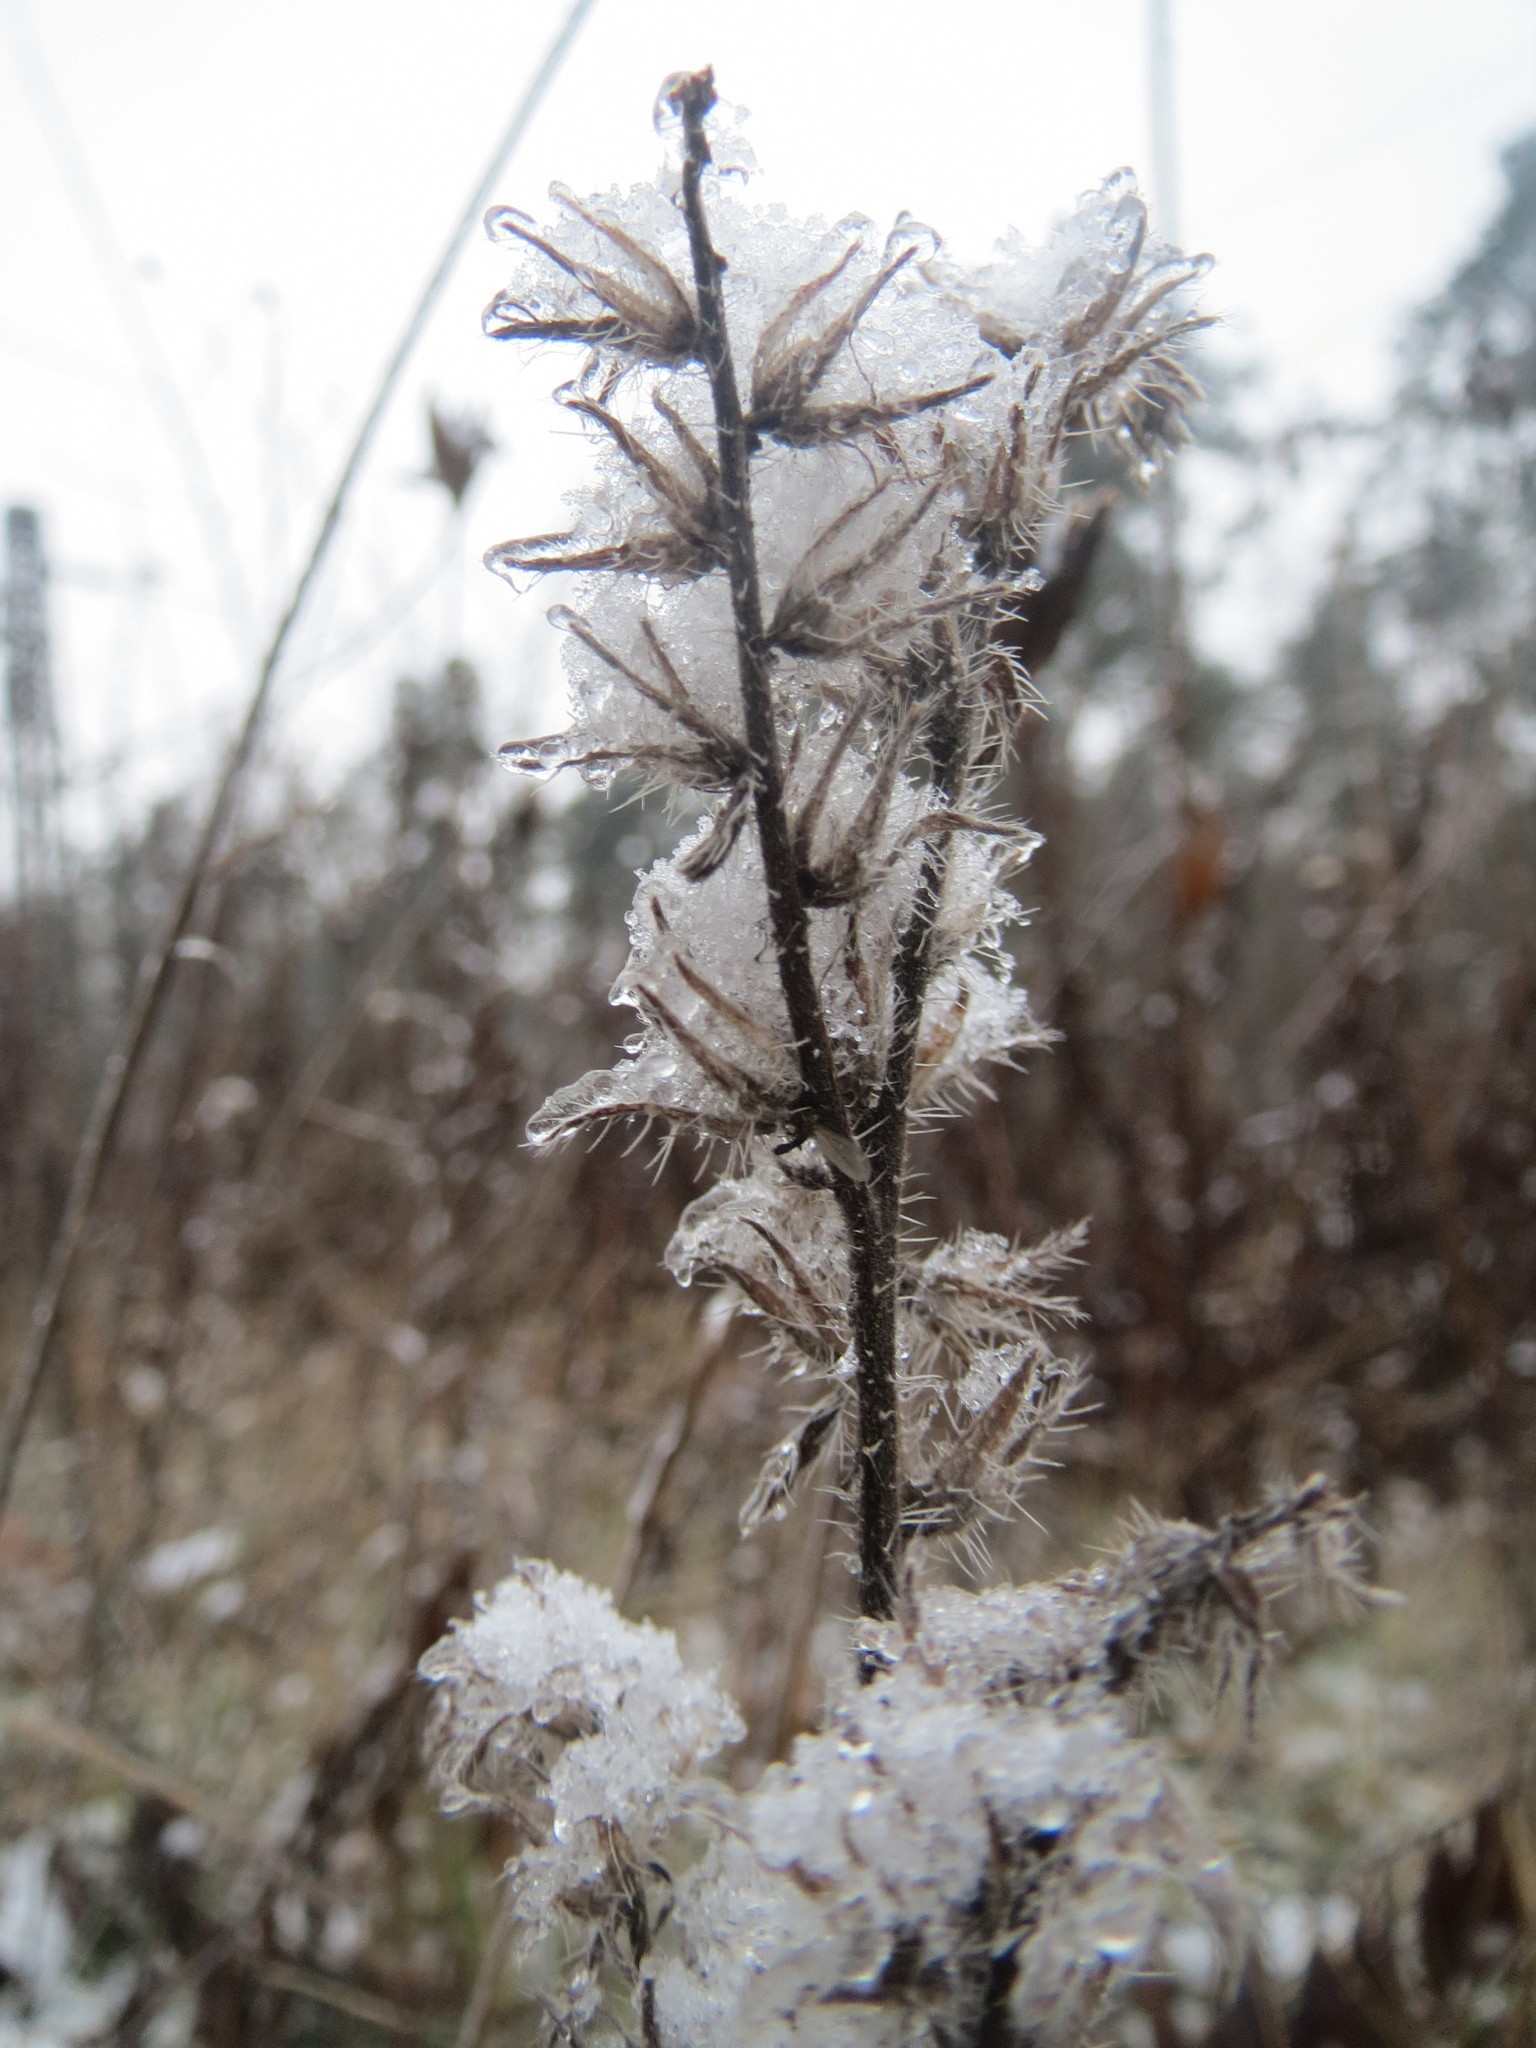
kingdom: Plantae
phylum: Tracheophyta
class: Magnoliopsida
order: Boraginales
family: Boraginaceae
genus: Echium
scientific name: Echium vulgare
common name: Common viper's bugloss
